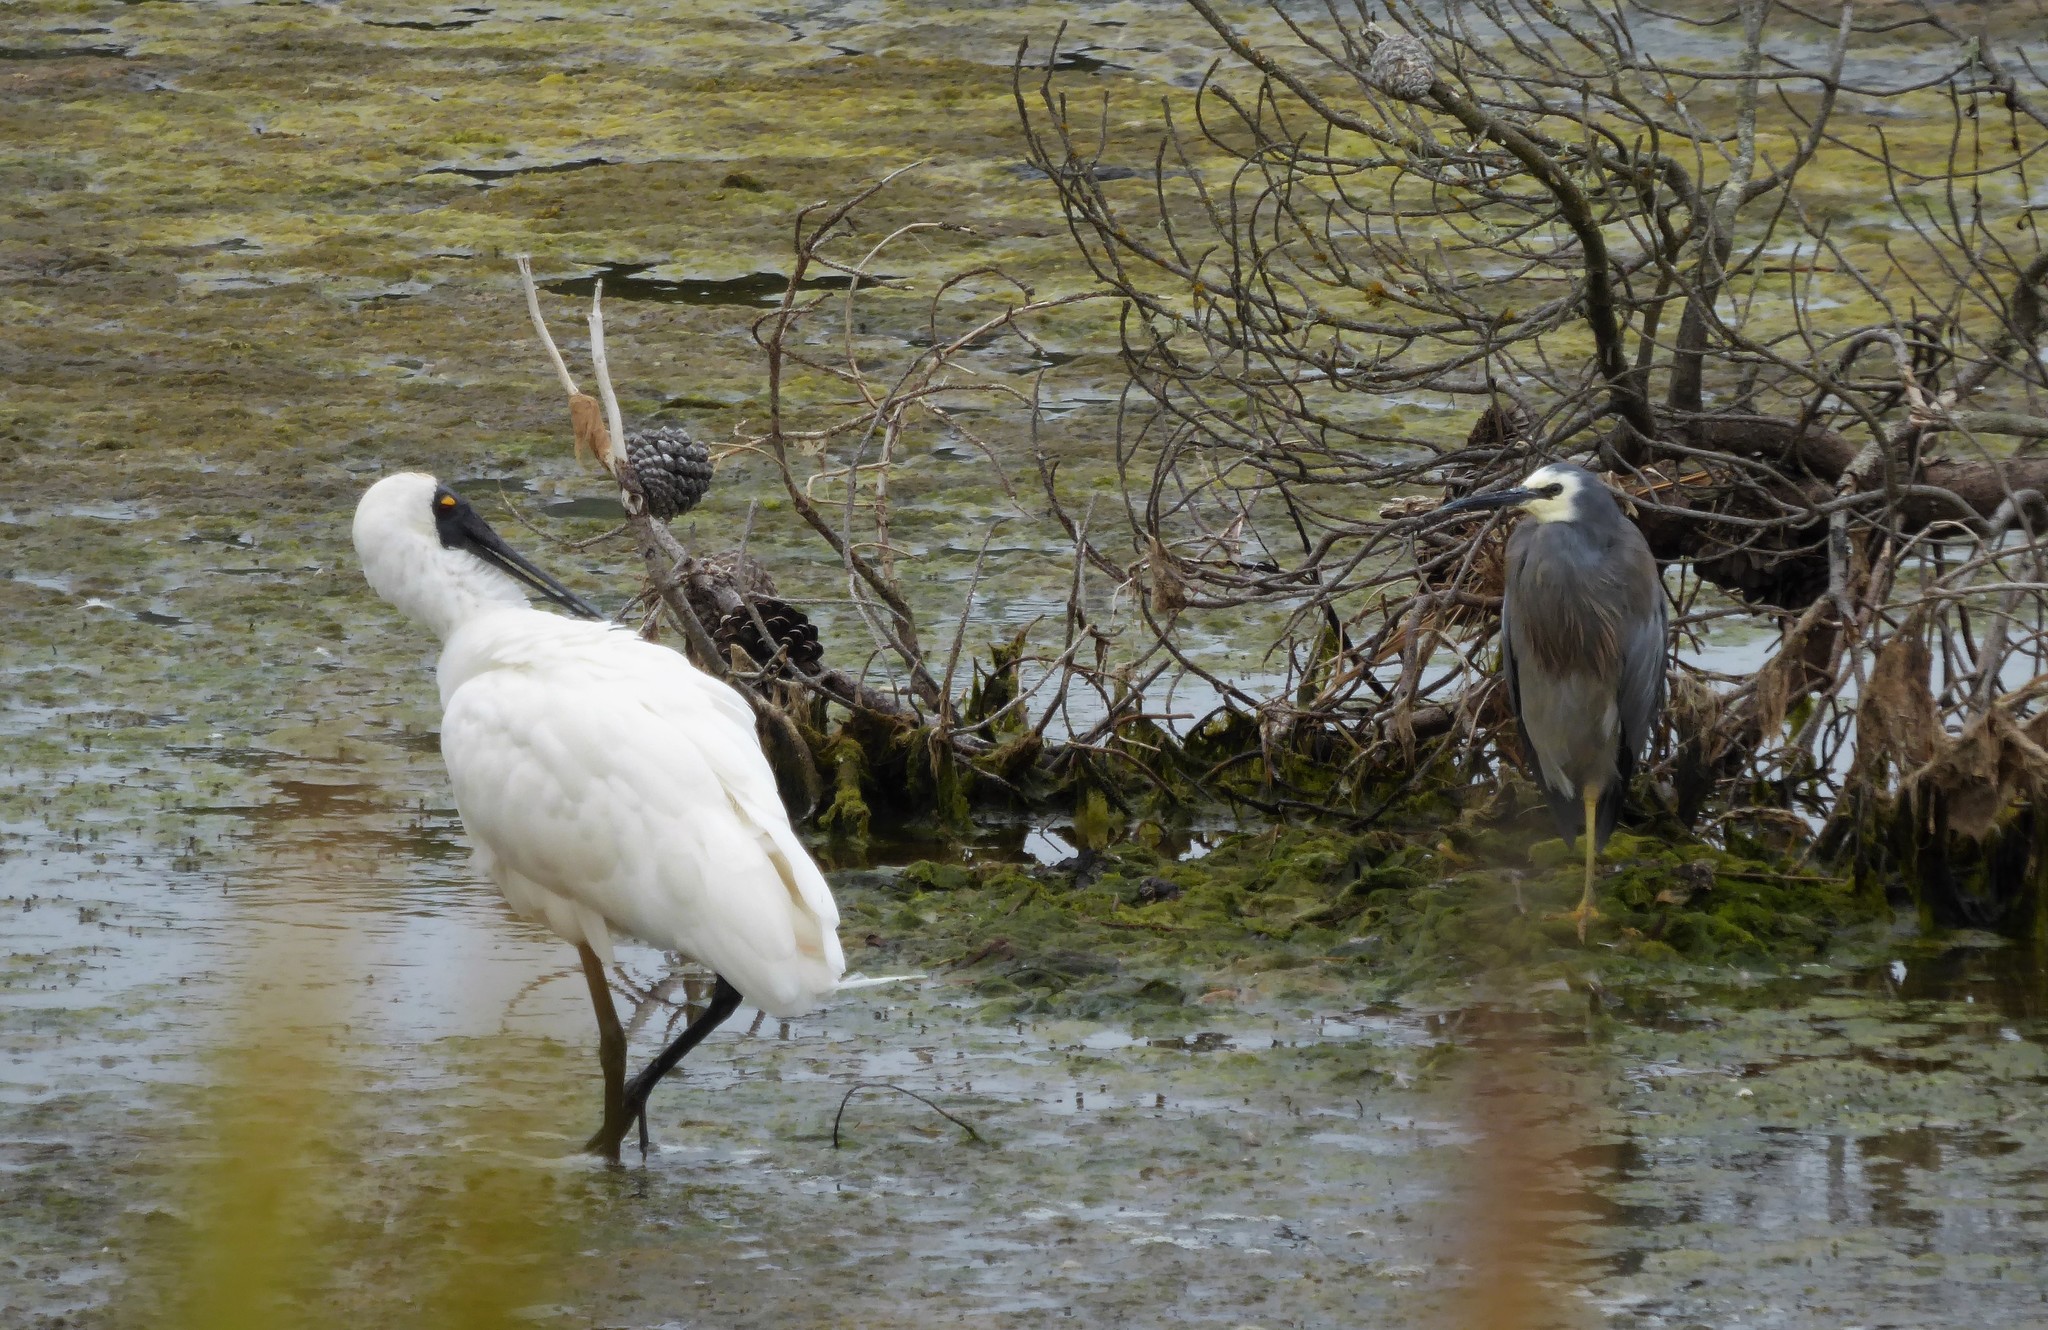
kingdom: Animalia
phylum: Chordata
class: Aves
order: Pelecaniformes
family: Ardeidae
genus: Egretta
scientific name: Egretta novaehollandiae
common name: White-faced heron
